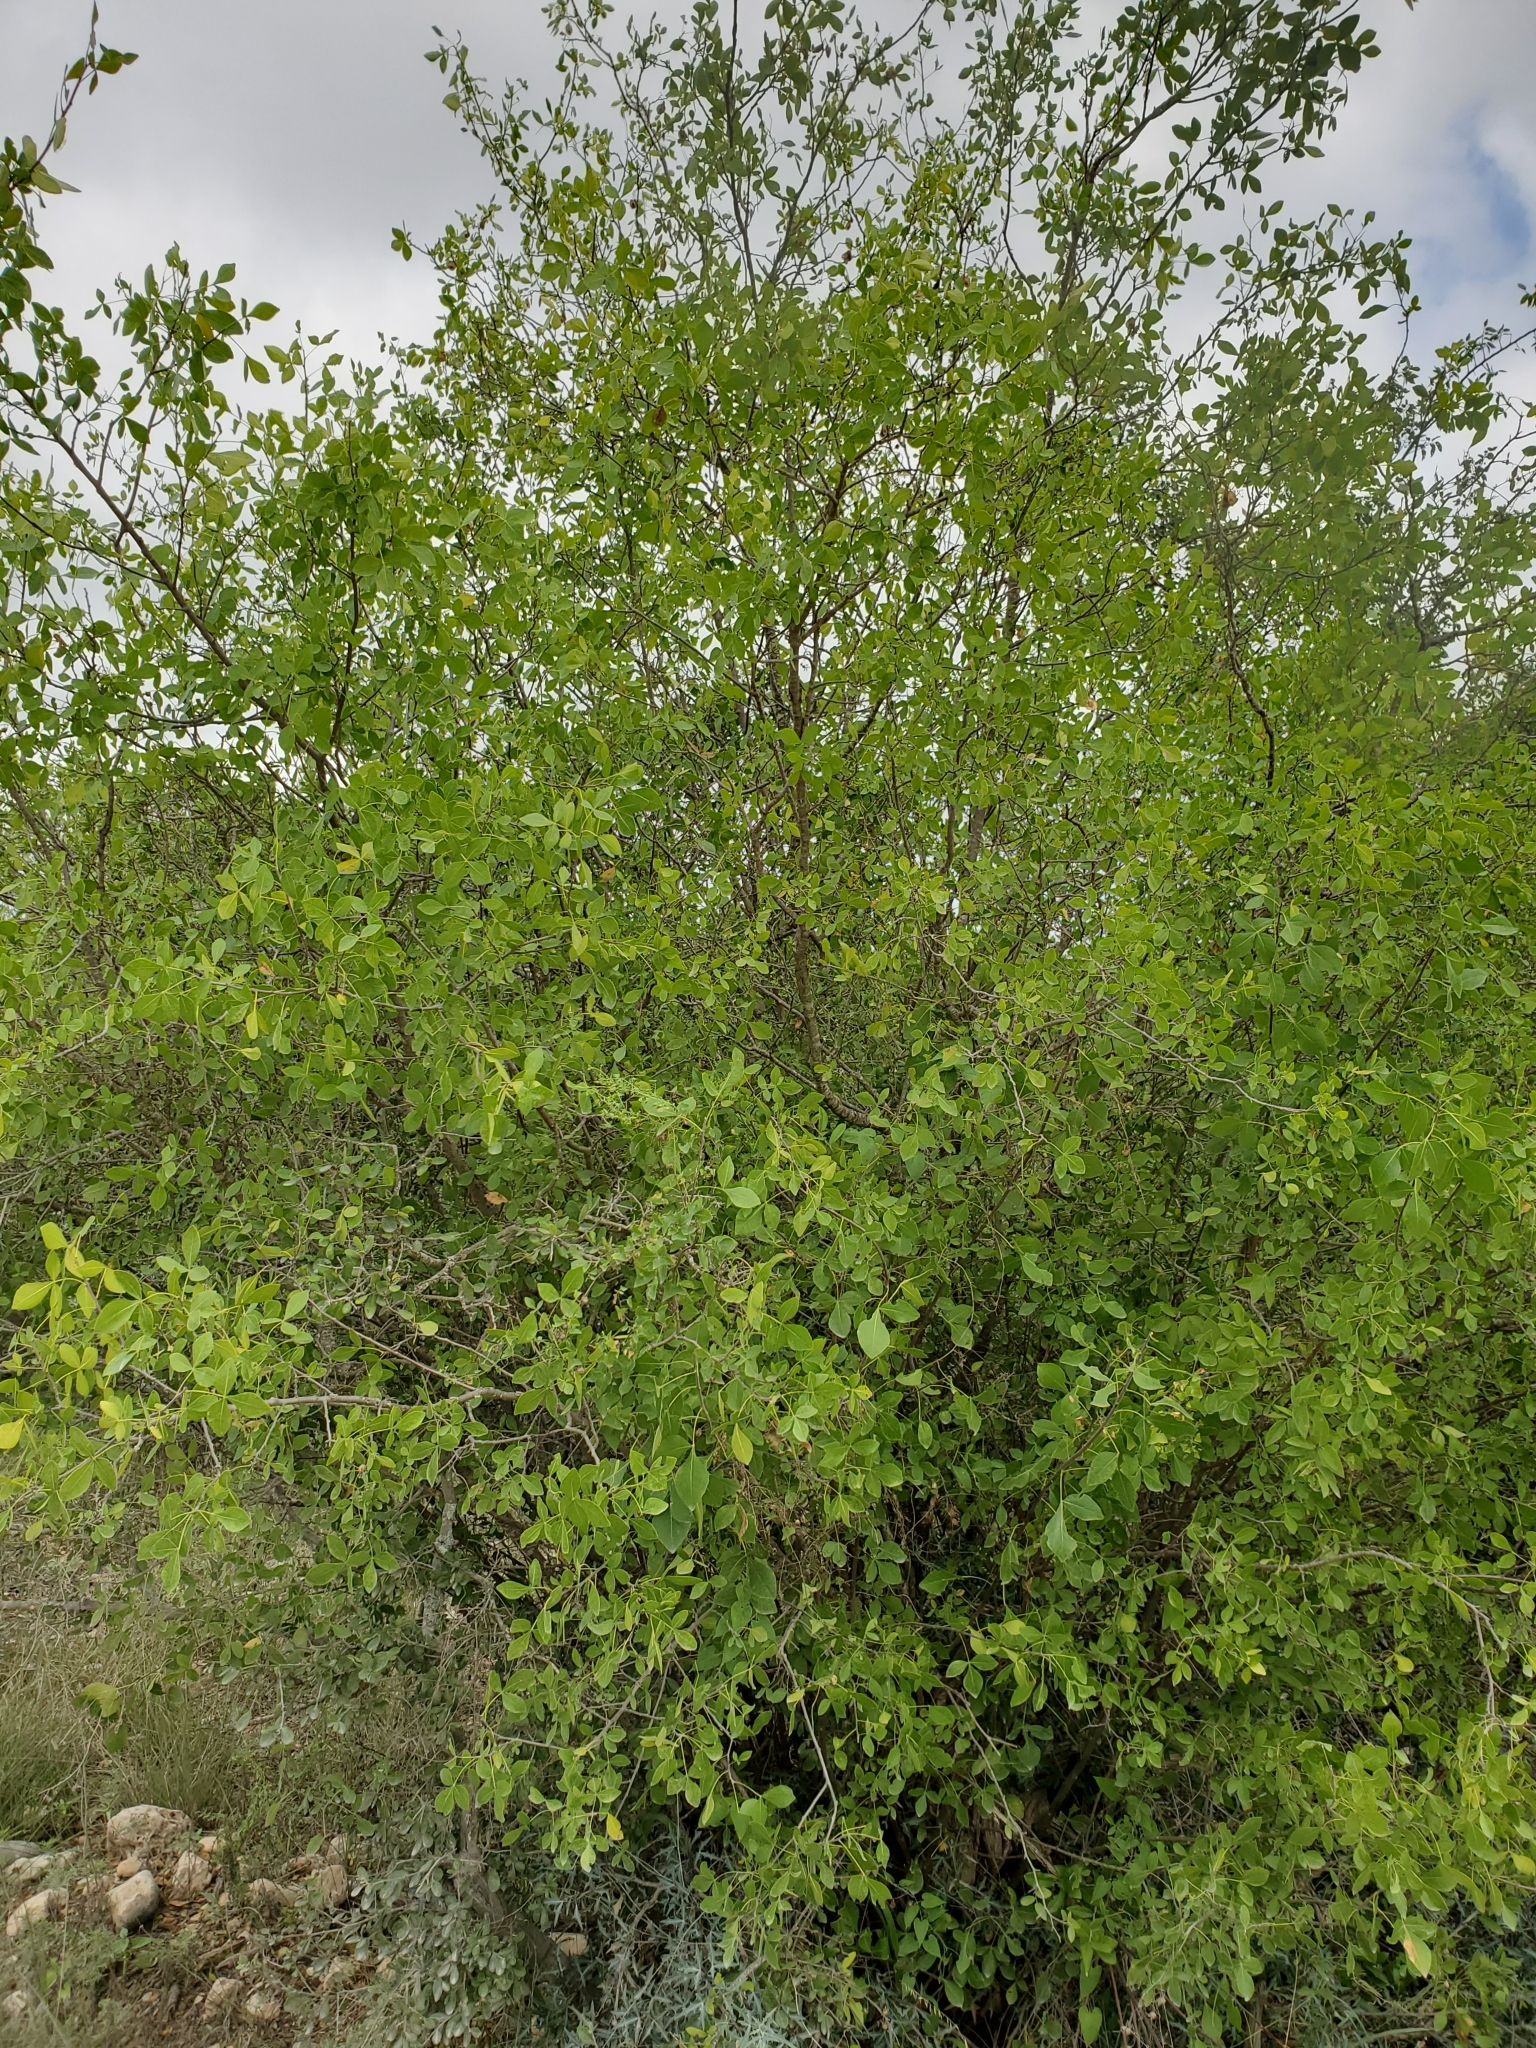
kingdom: Plantae
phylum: Tracheophyta
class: Magnoliopsida
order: Sapindales
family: Rutaceae
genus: Ptelea
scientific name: Ptelea trifoliata
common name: Common hop-tree
